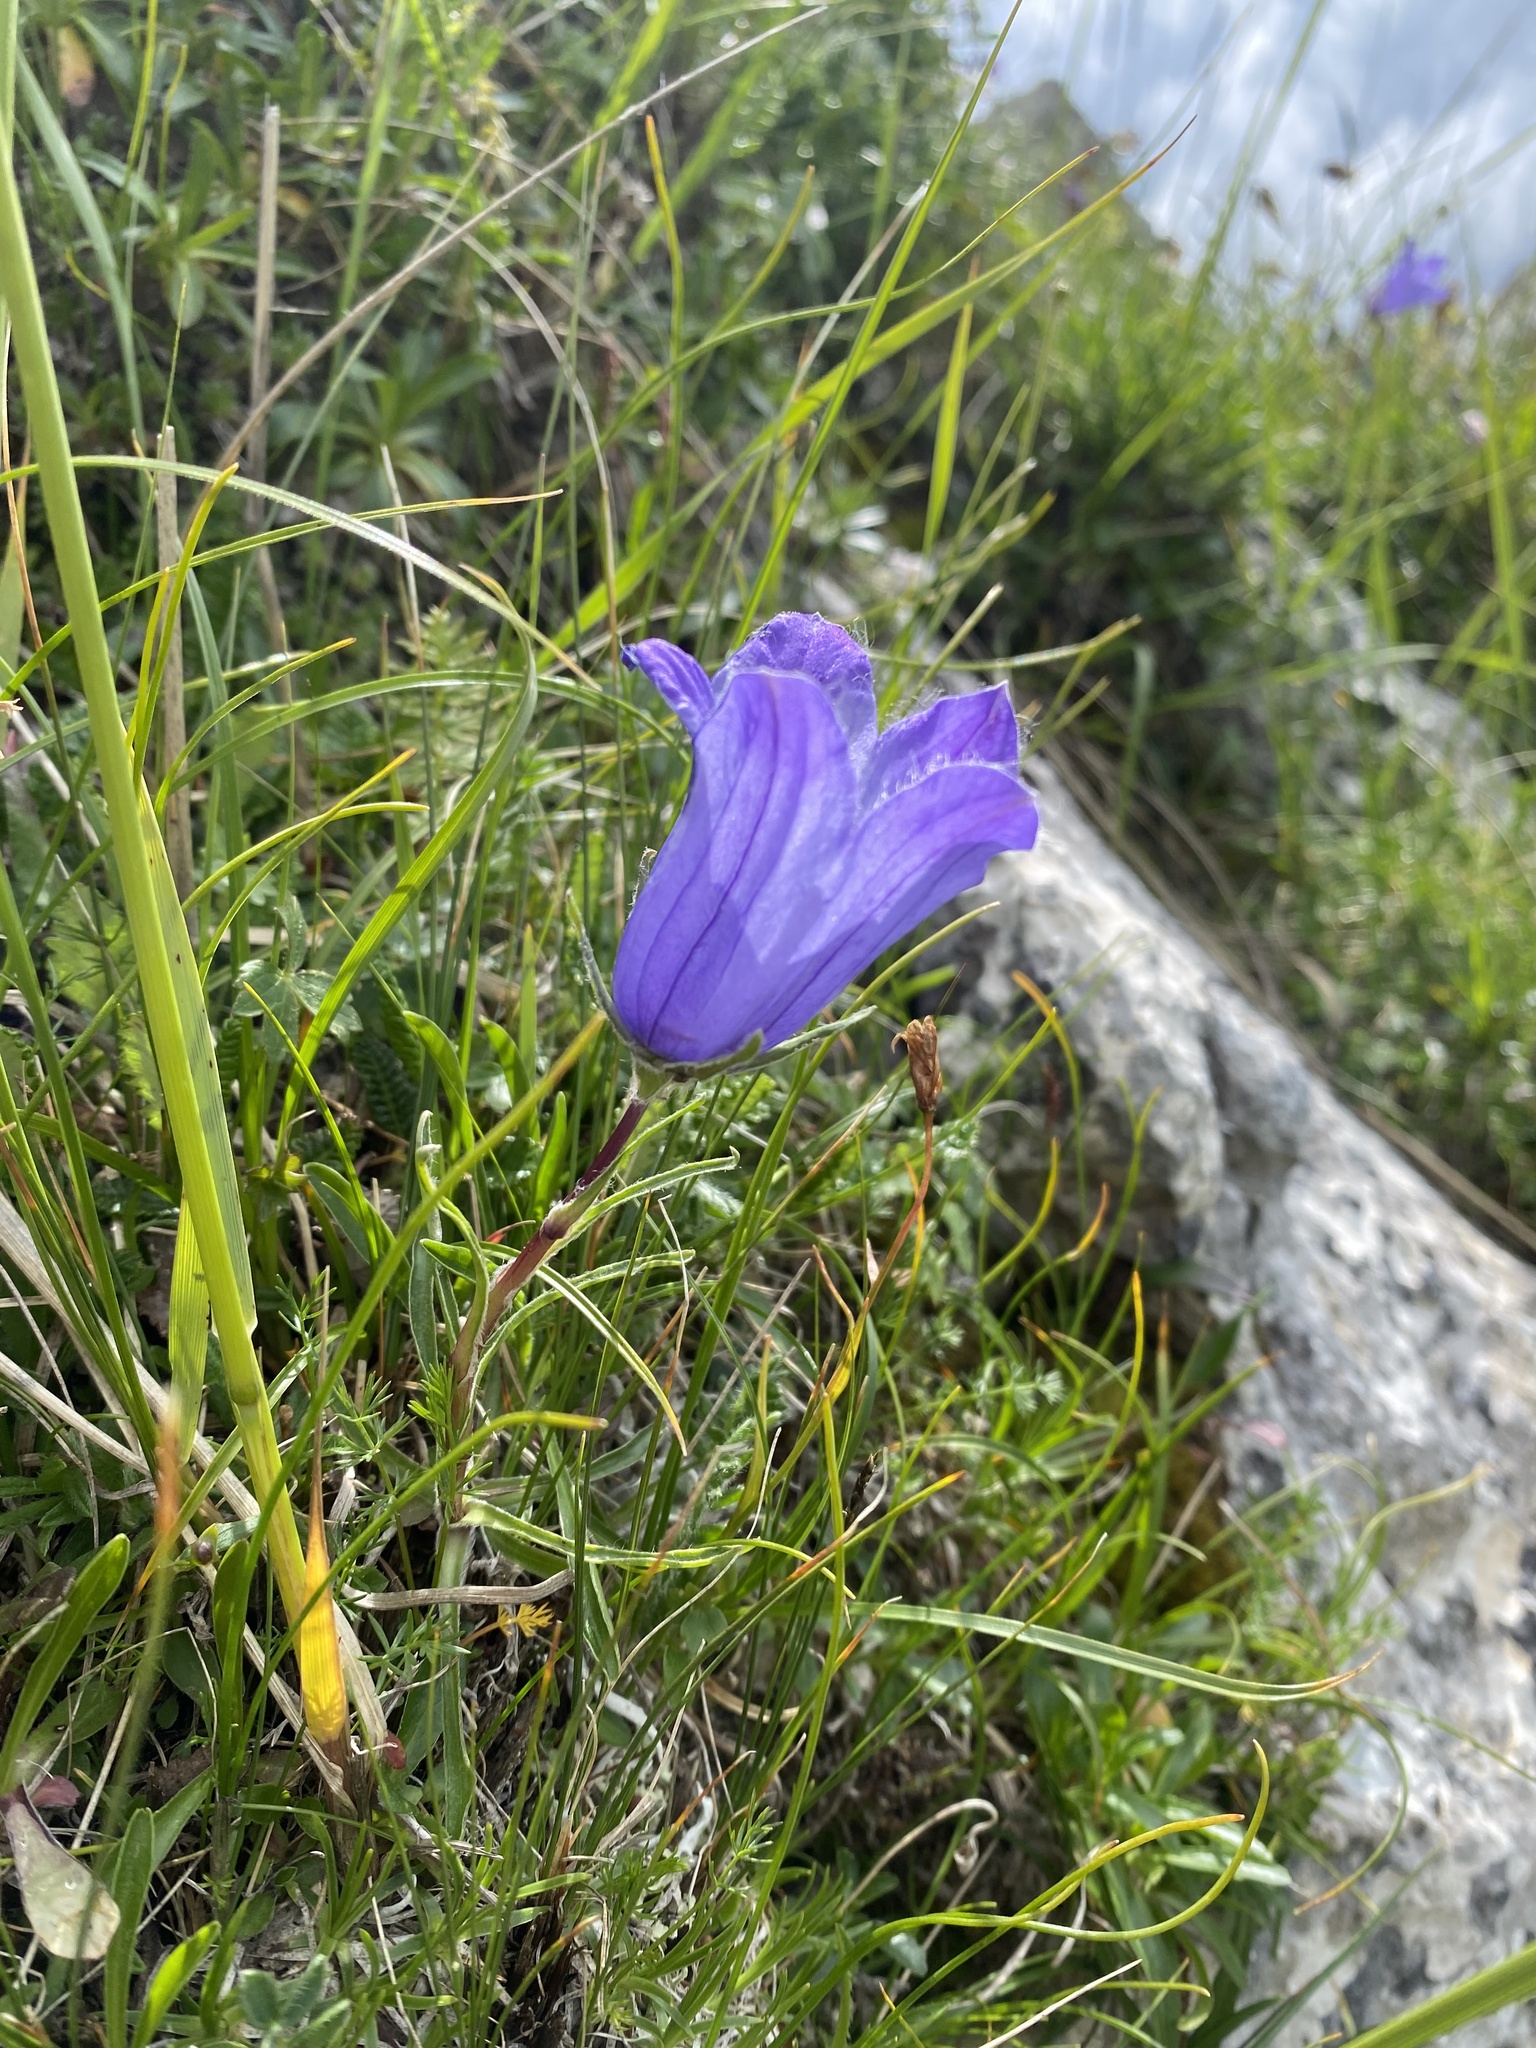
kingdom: Plantae
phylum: Tracheophyta
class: Magnoliopsida
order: Asterales
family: Campanulaceae
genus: Campanula
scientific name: Campanula tridentata
